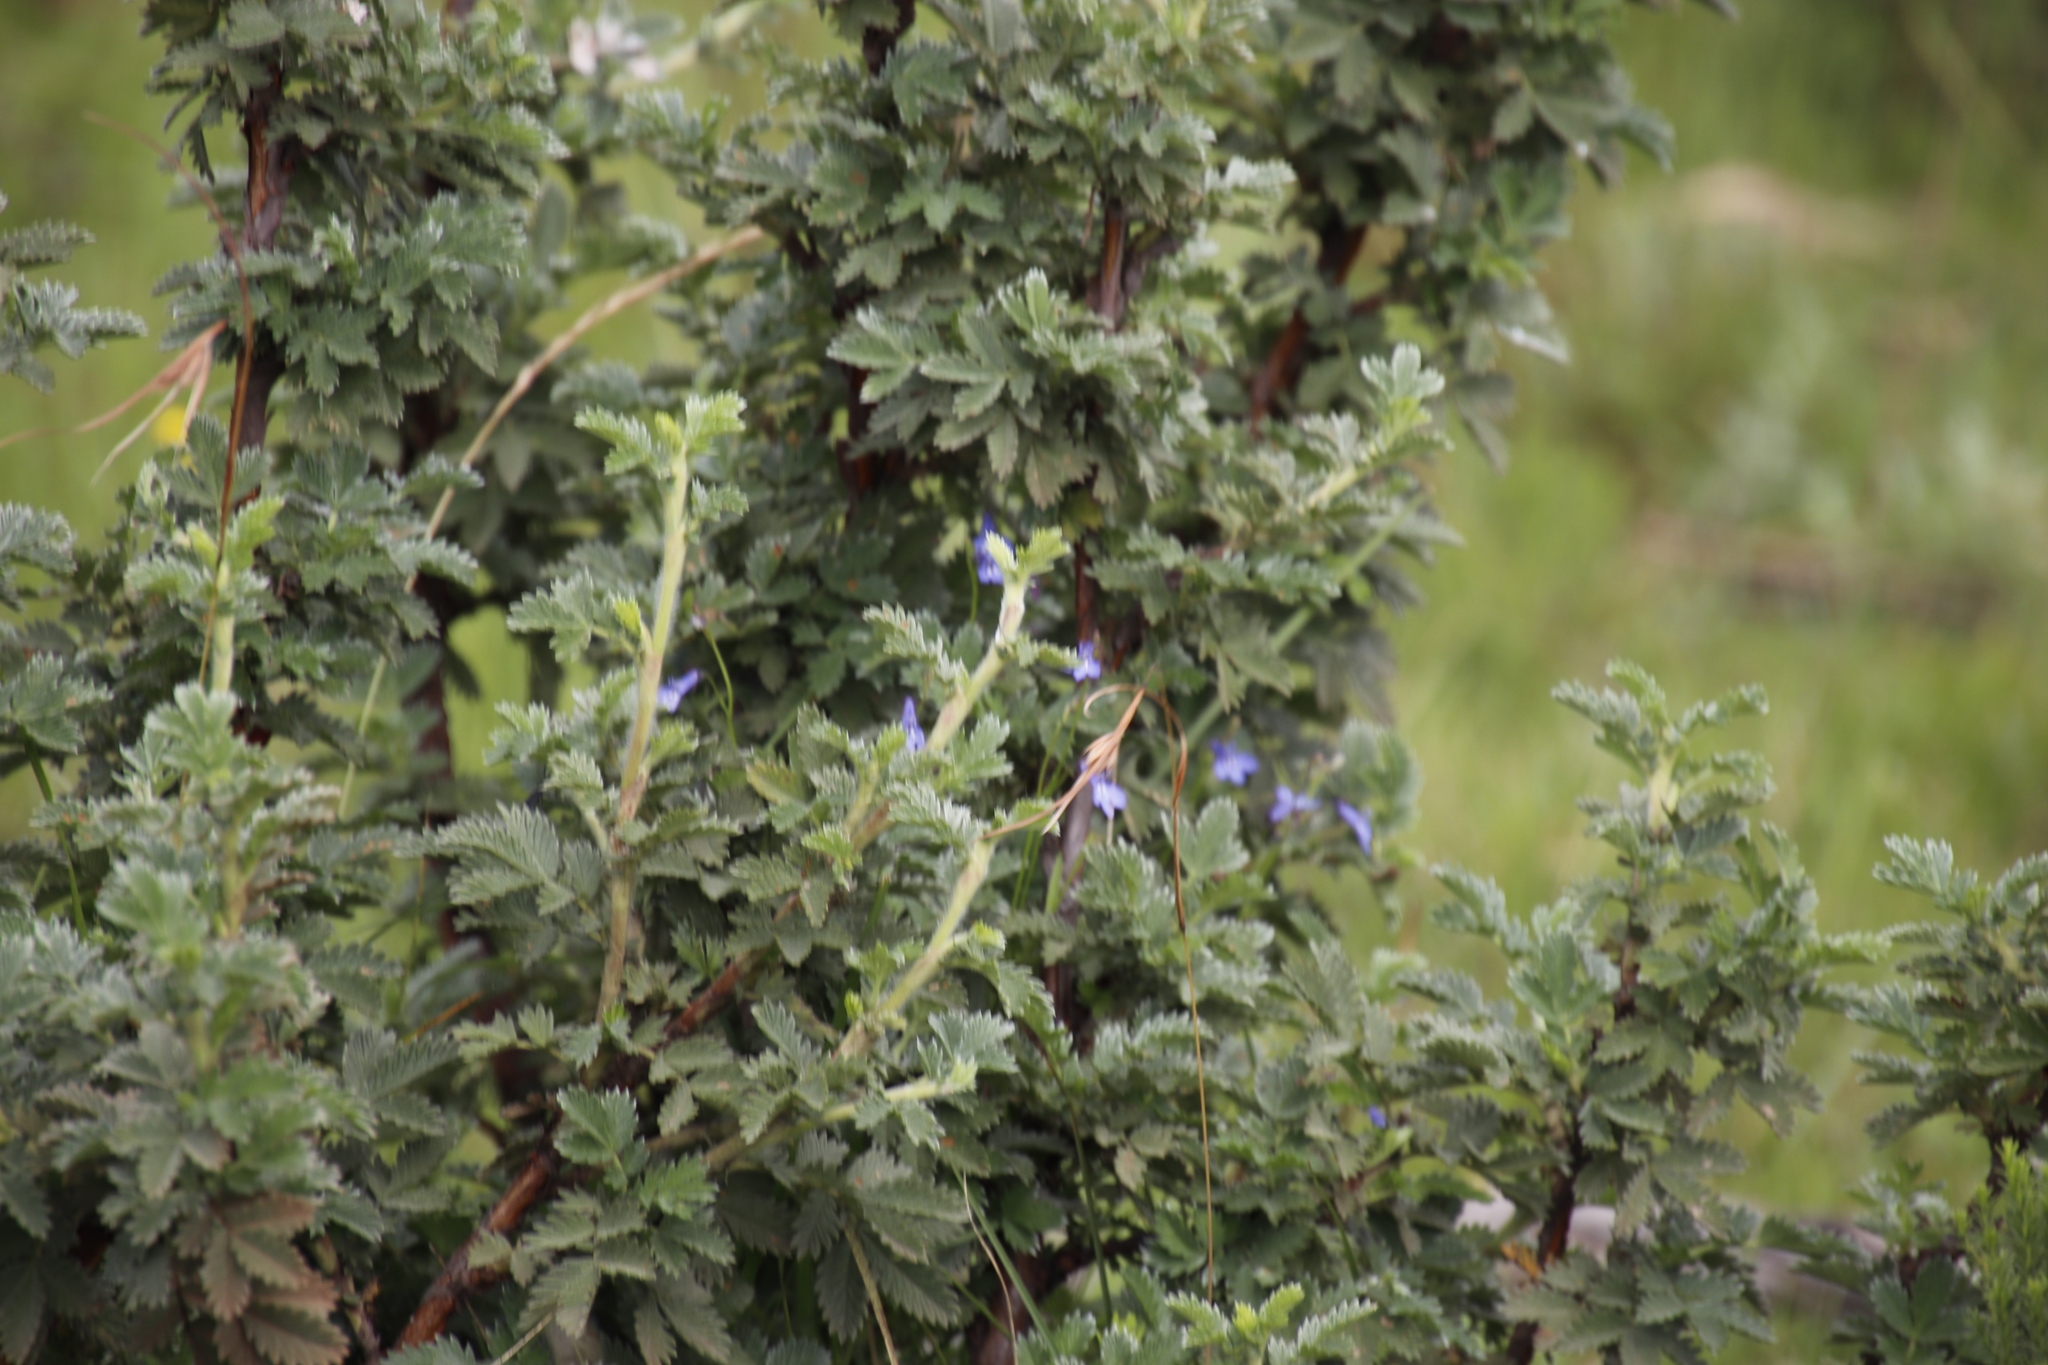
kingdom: Plantae
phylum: Tracheophyta
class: Magnoliopsida
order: Rosales
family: Rosaceae
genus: Leucosidea
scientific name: Leucosidea sericea
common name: Oldwood
